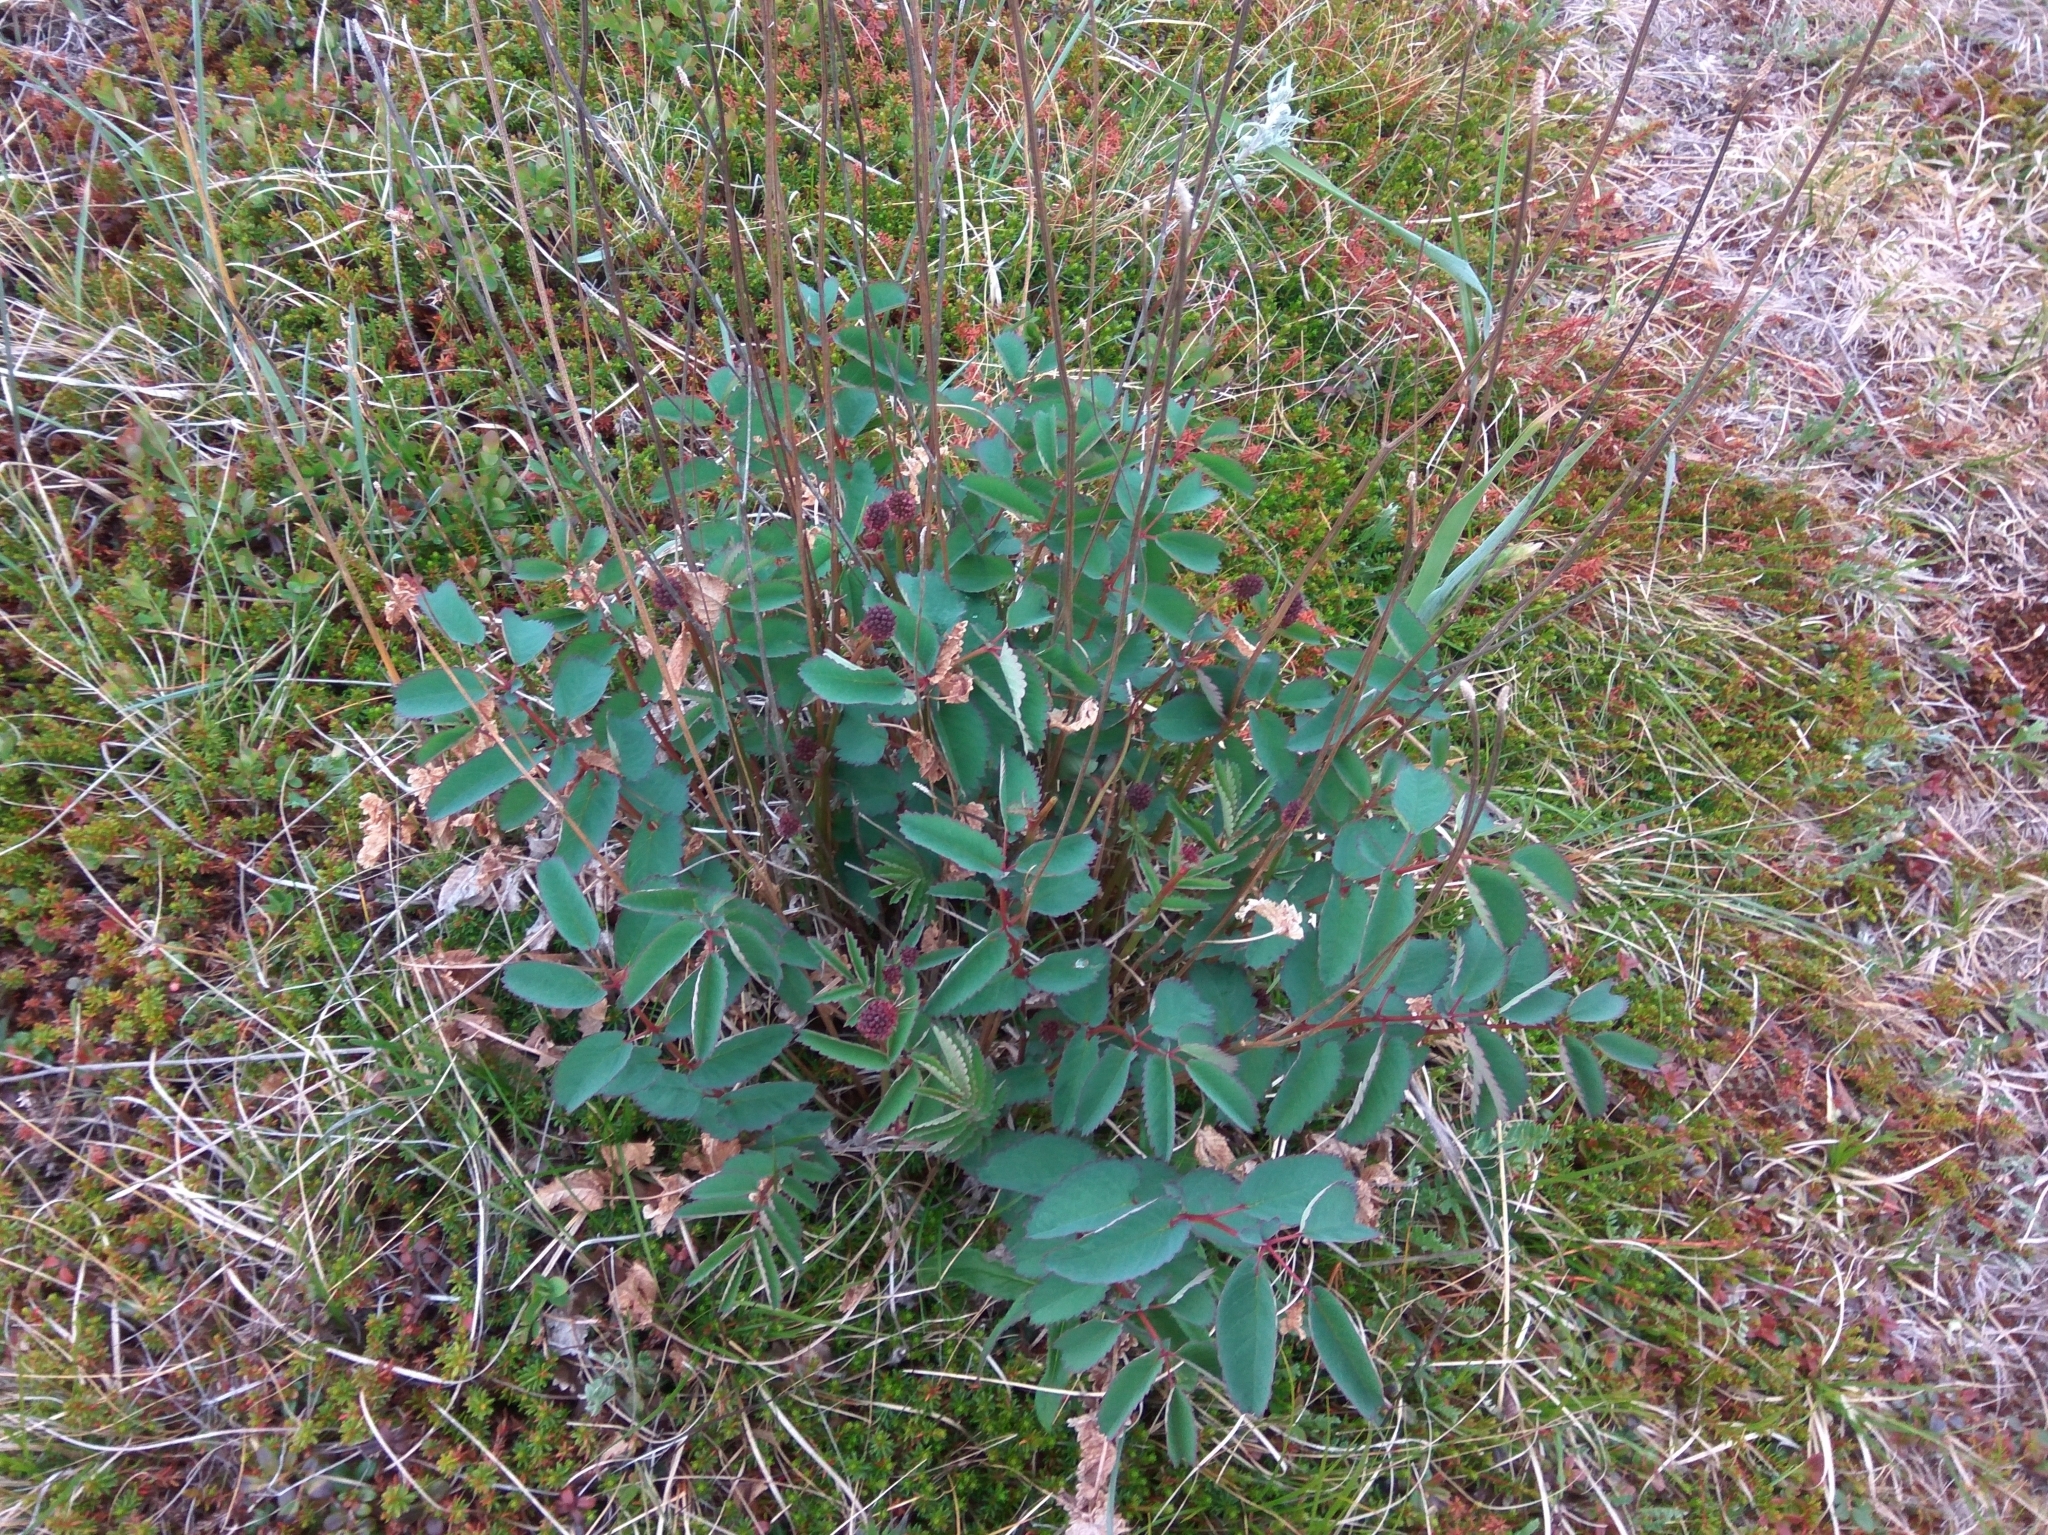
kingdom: Plantae
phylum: Tracheophyta
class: Magnoliopsida
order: Rosales
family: Rosaceae
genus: Sanguisorba
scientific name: Sanguisorba officinalis
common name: Great burnet
